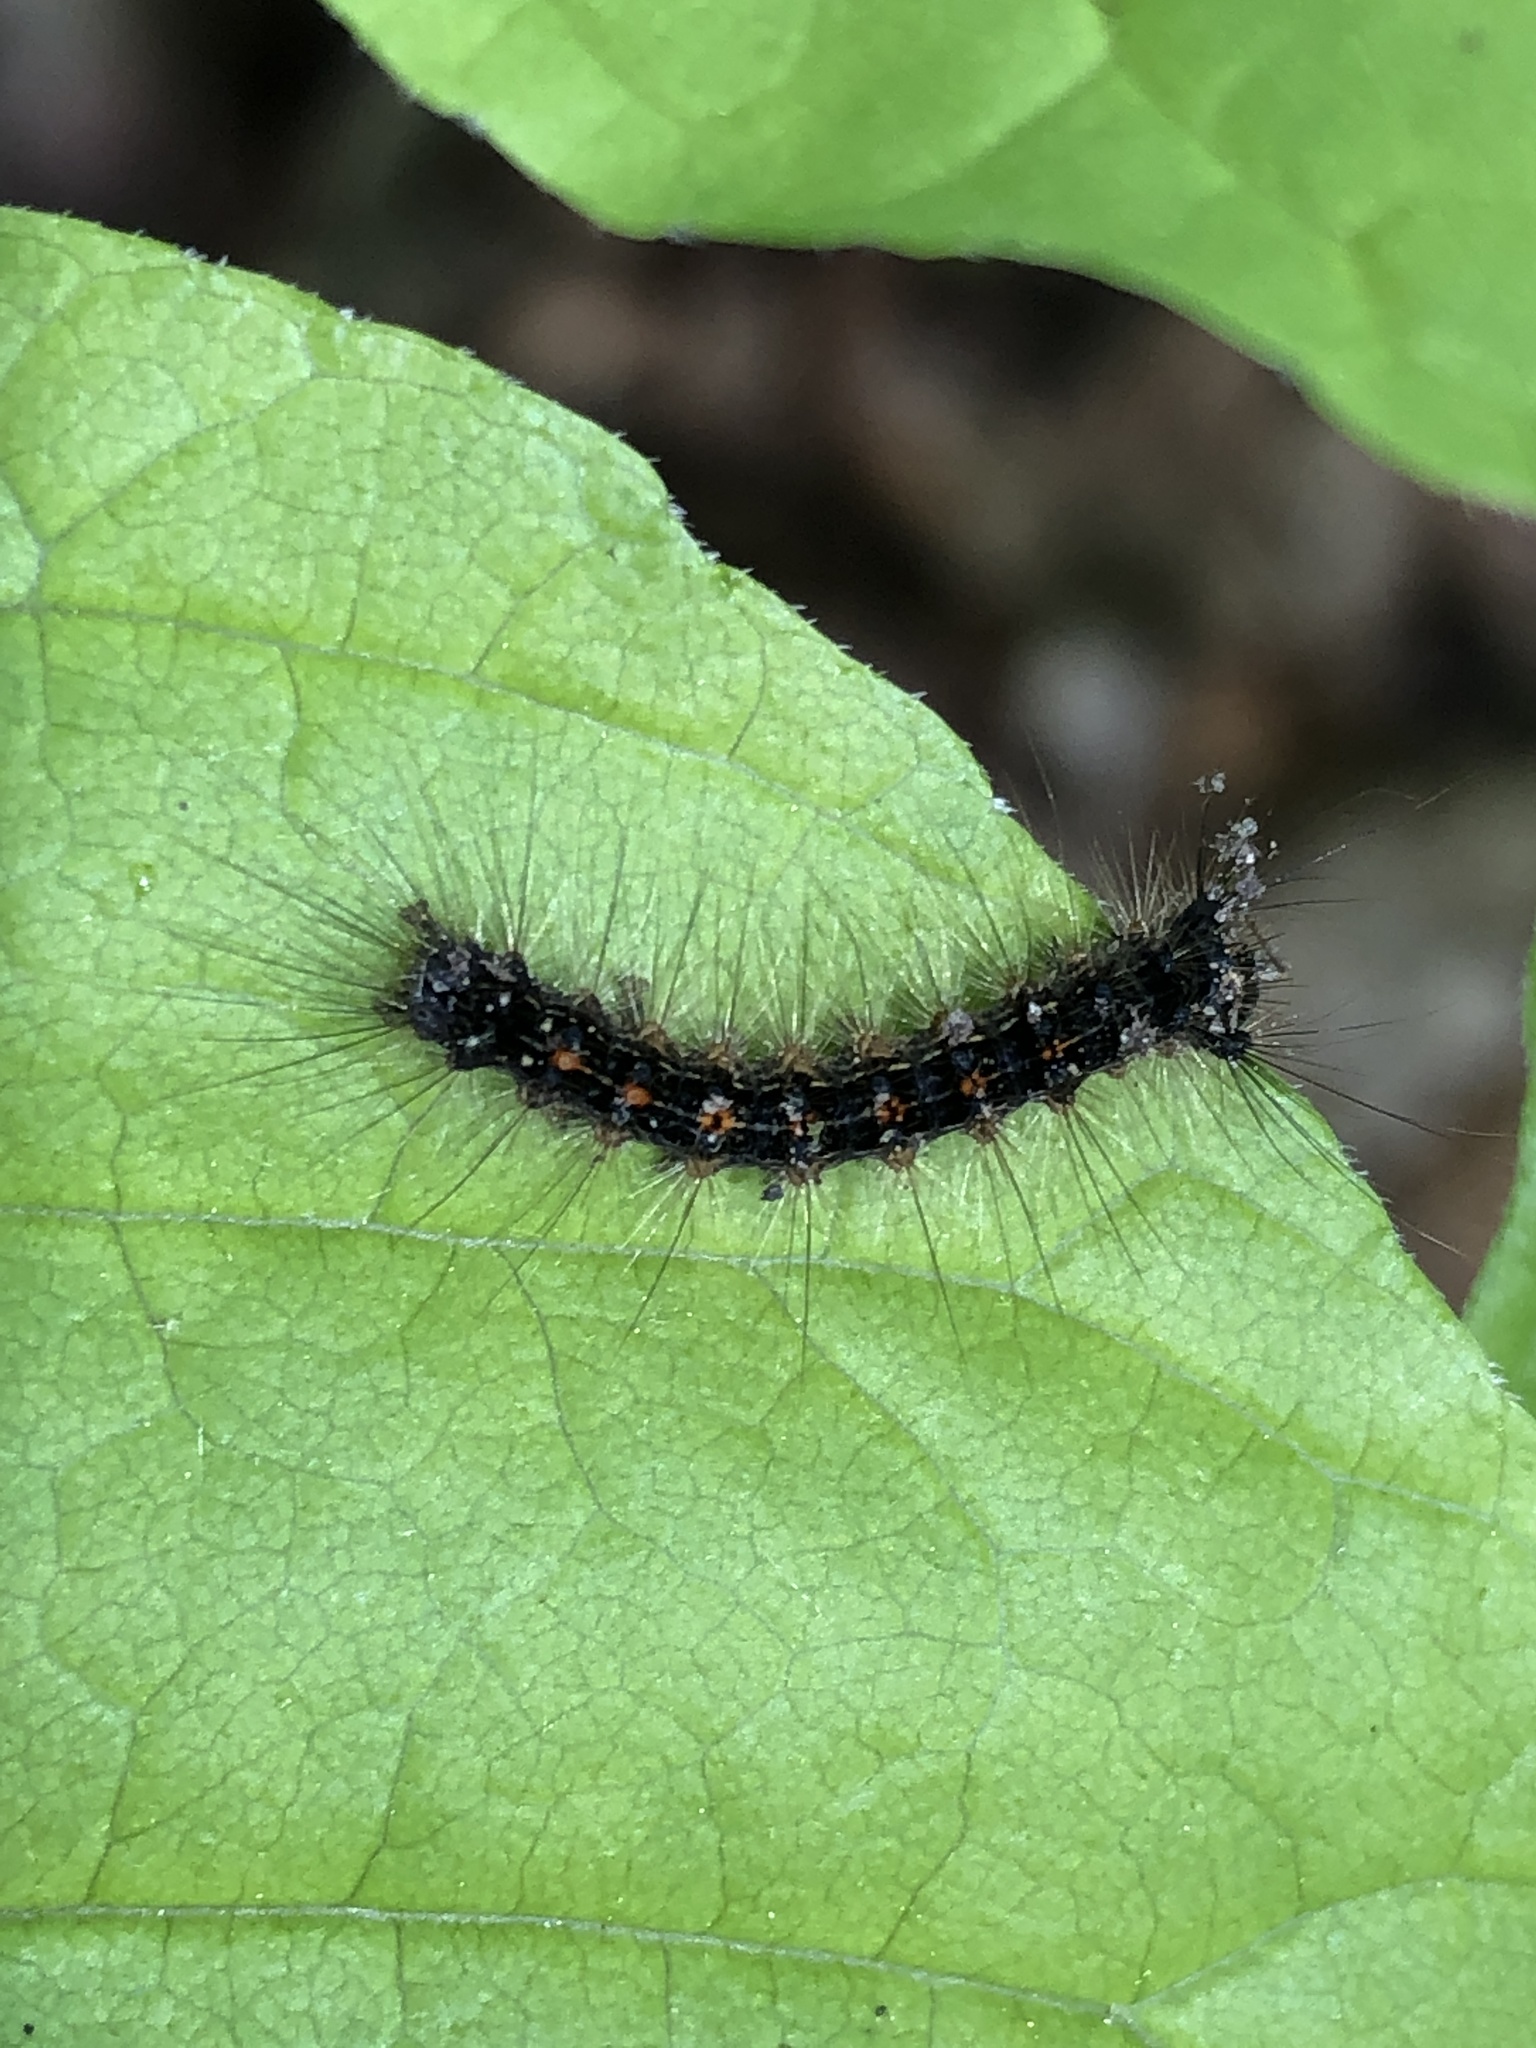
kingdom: Animalia
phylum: Arthropoda
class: Insecta
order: Lepidoptera
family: Erebidae
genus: Lymantria
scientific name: Lymantria dispar
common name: Gypsy moth
